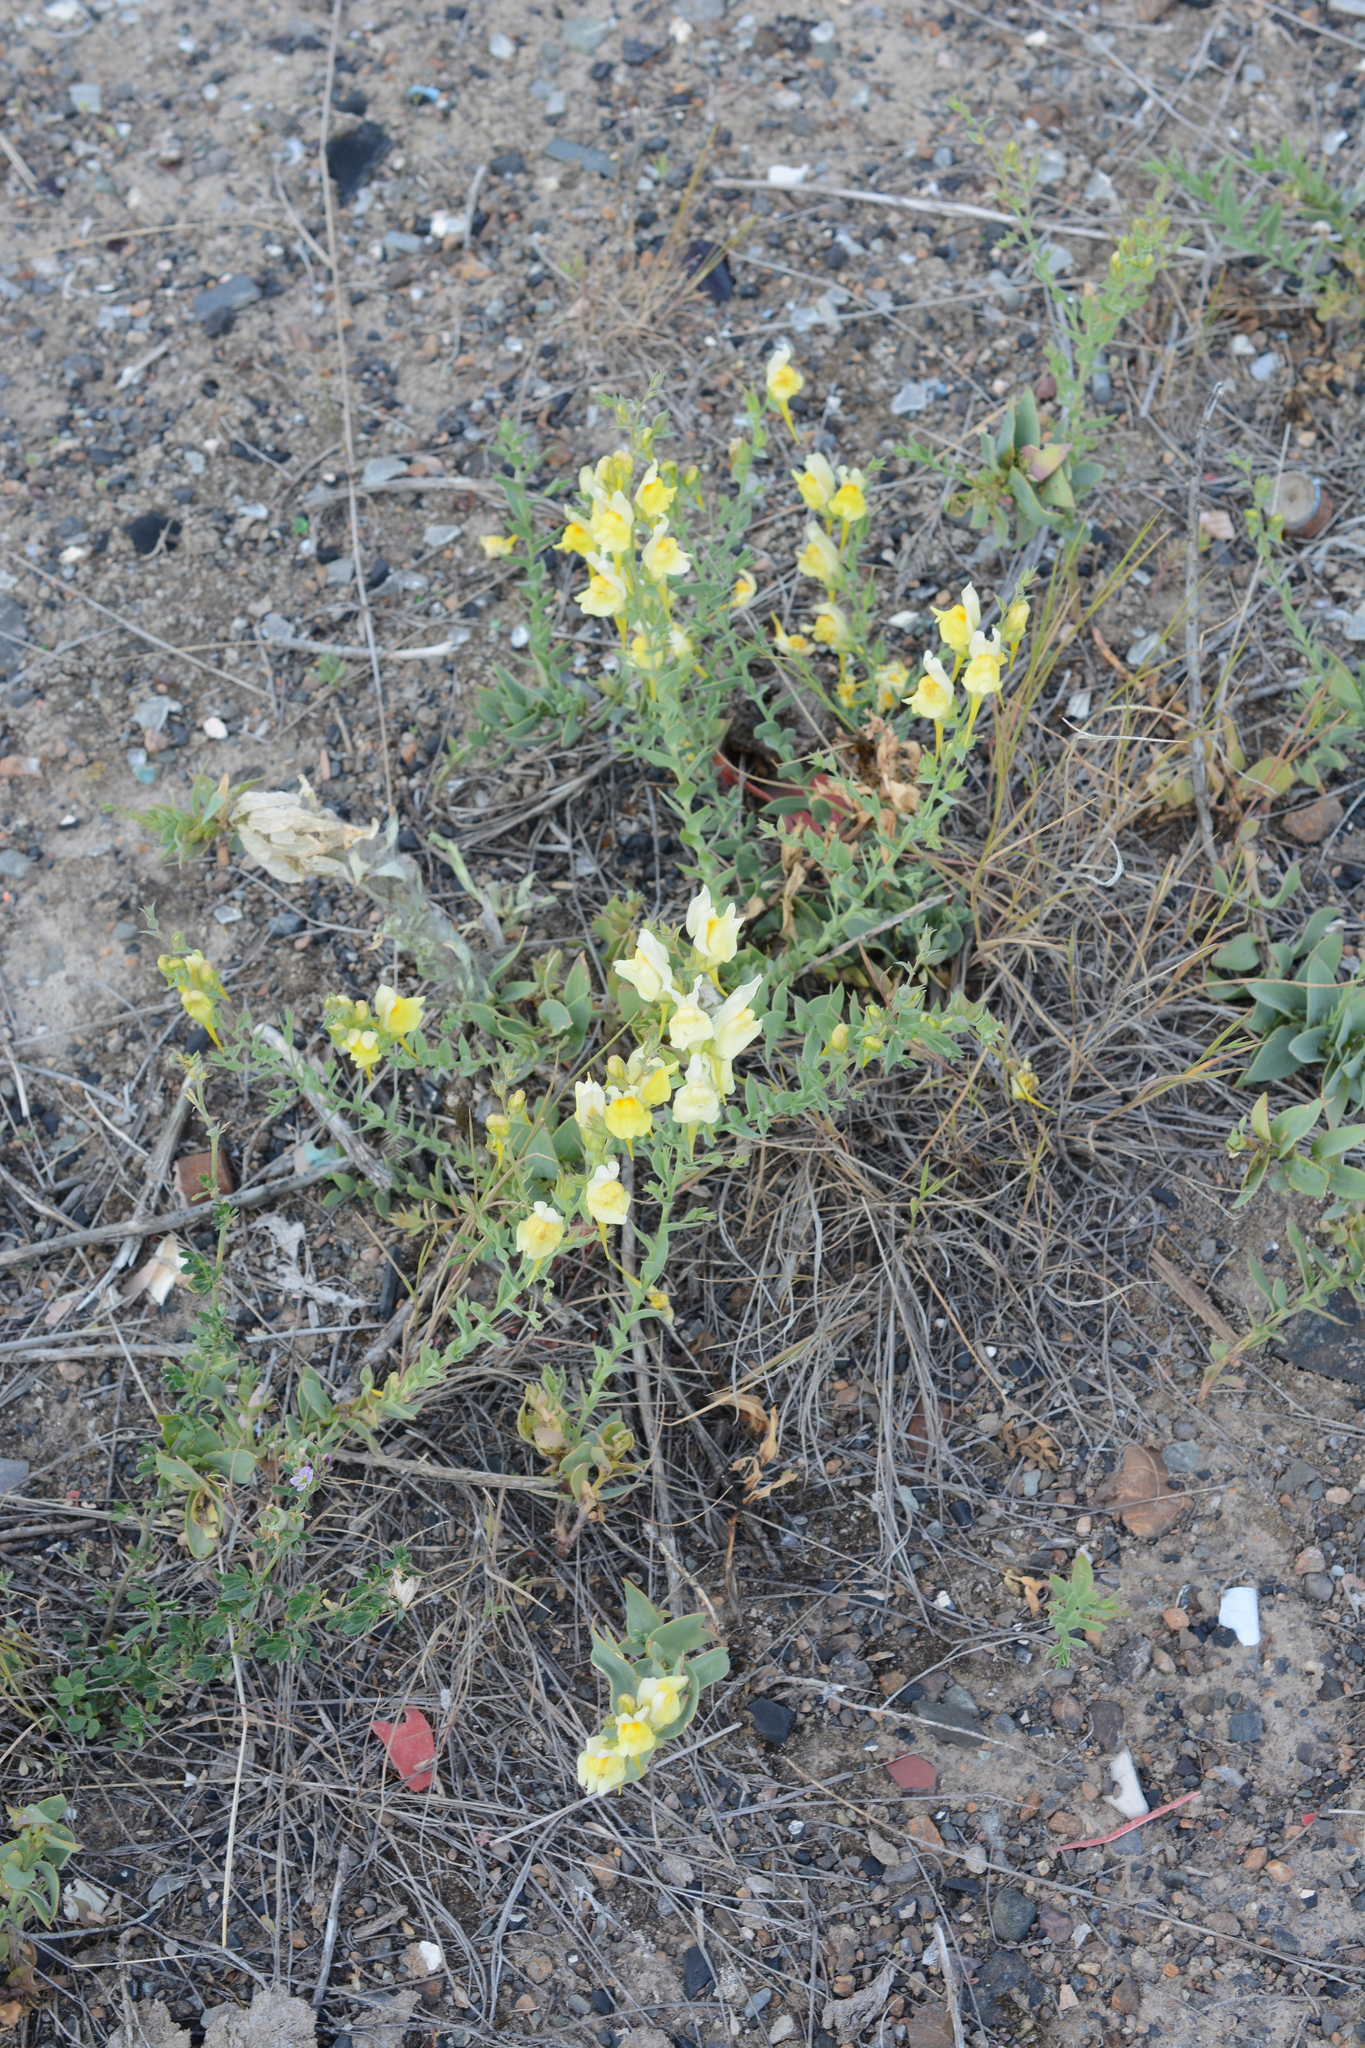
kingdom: Plantae
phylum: Tracheophyta
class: Magnoliopsida
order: Lamiales
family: Plantaginaceae
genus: Linaria
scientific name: Linaria dalmatica
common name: Dalmatian toadflax
